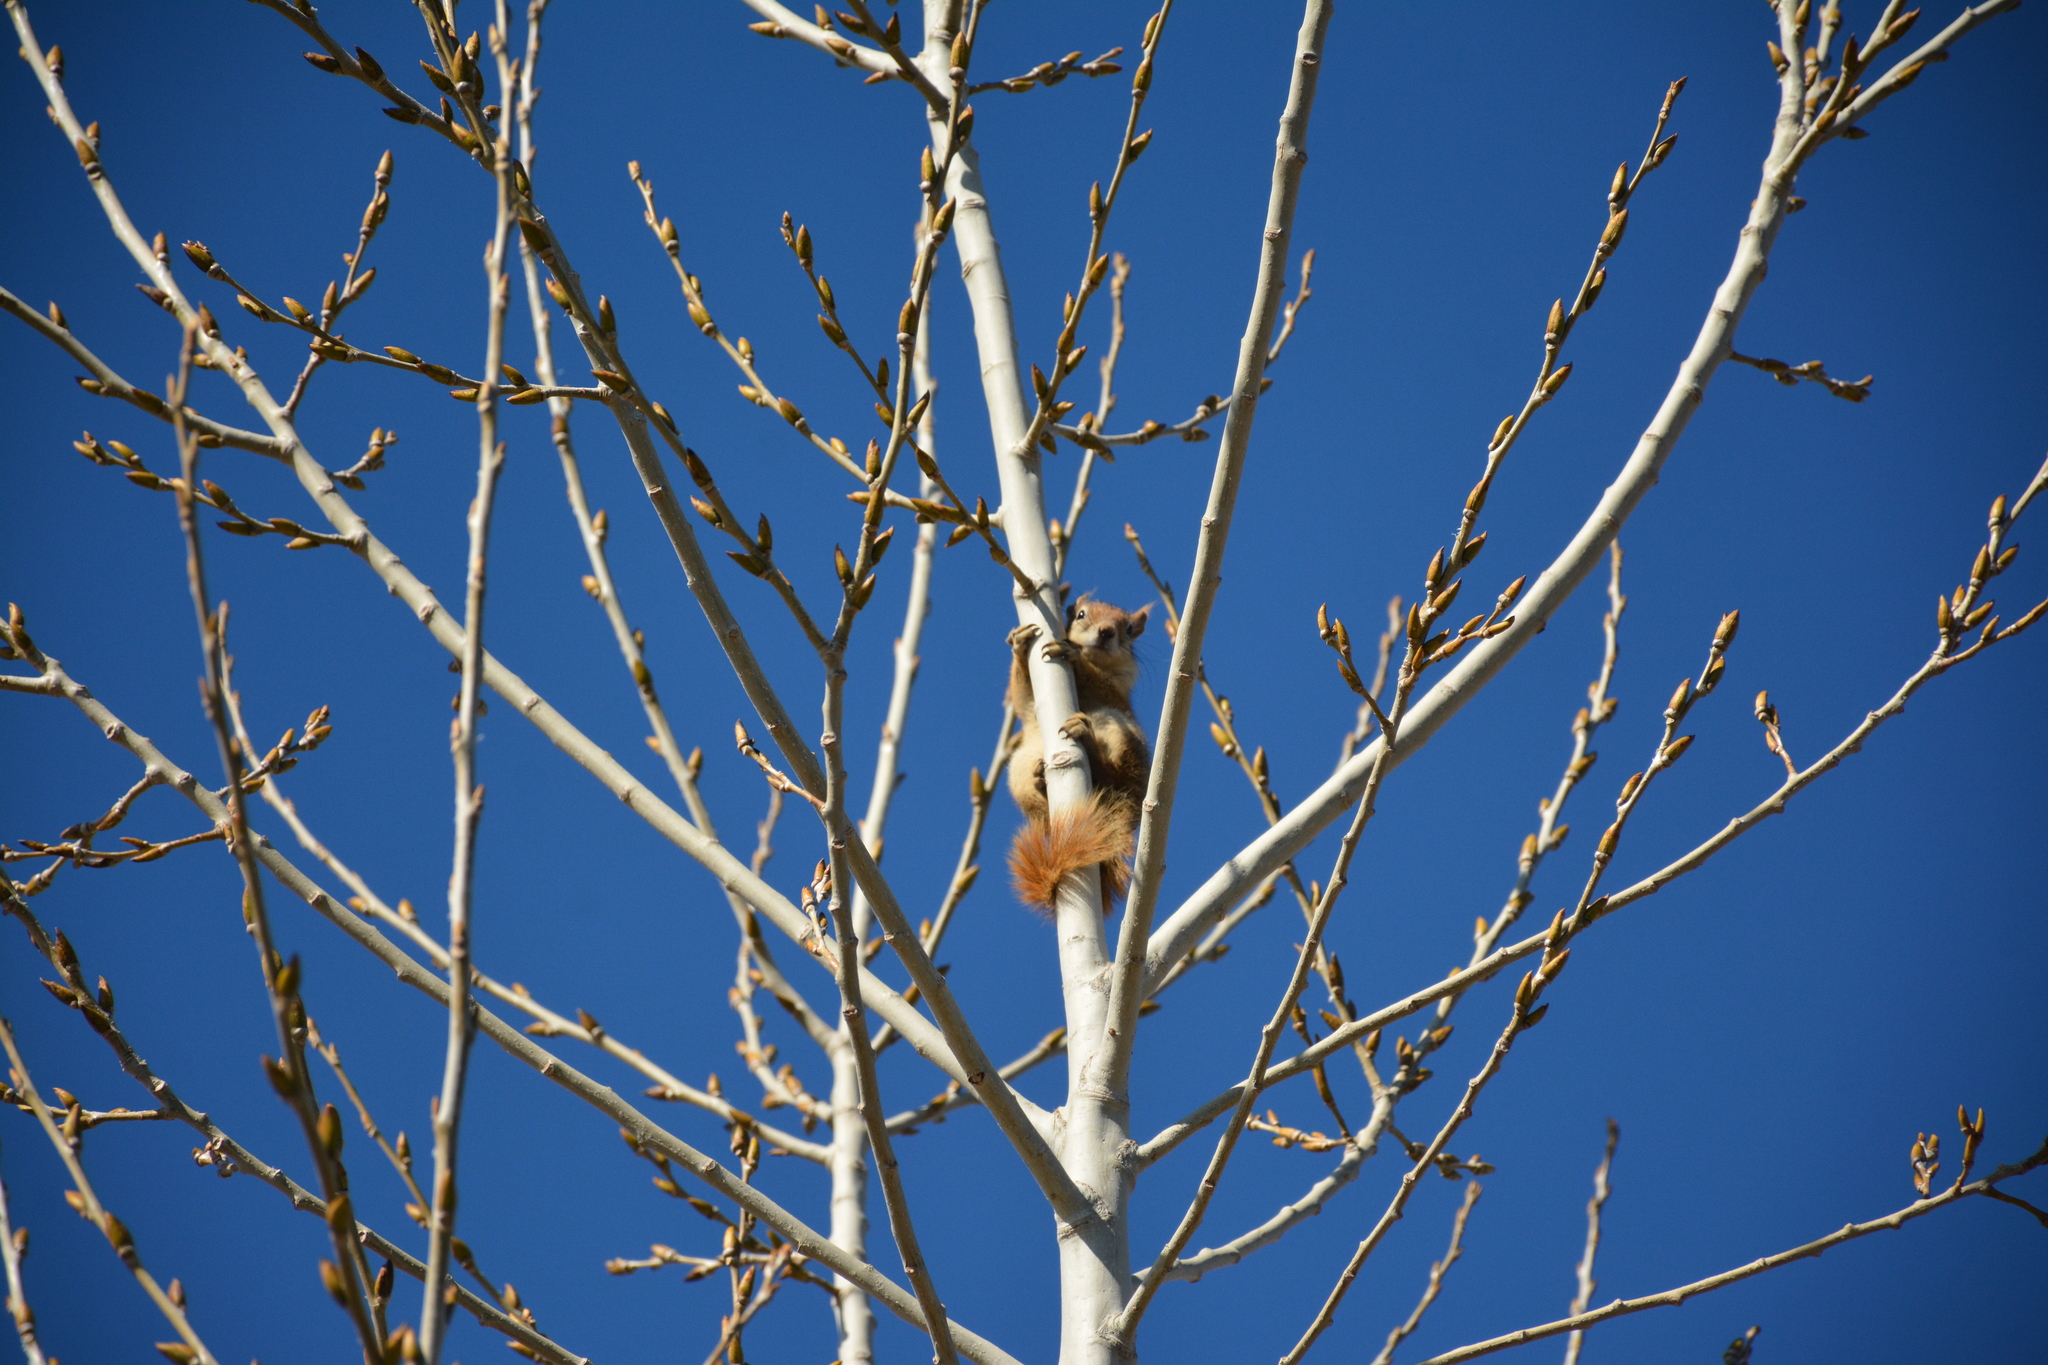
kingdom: Animalia
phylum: Chordata
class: Mammalia
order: Rodentia
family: Sciuridae
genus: Sciurus
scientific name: Sciurus anomalus
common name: Caucasian squirrel
